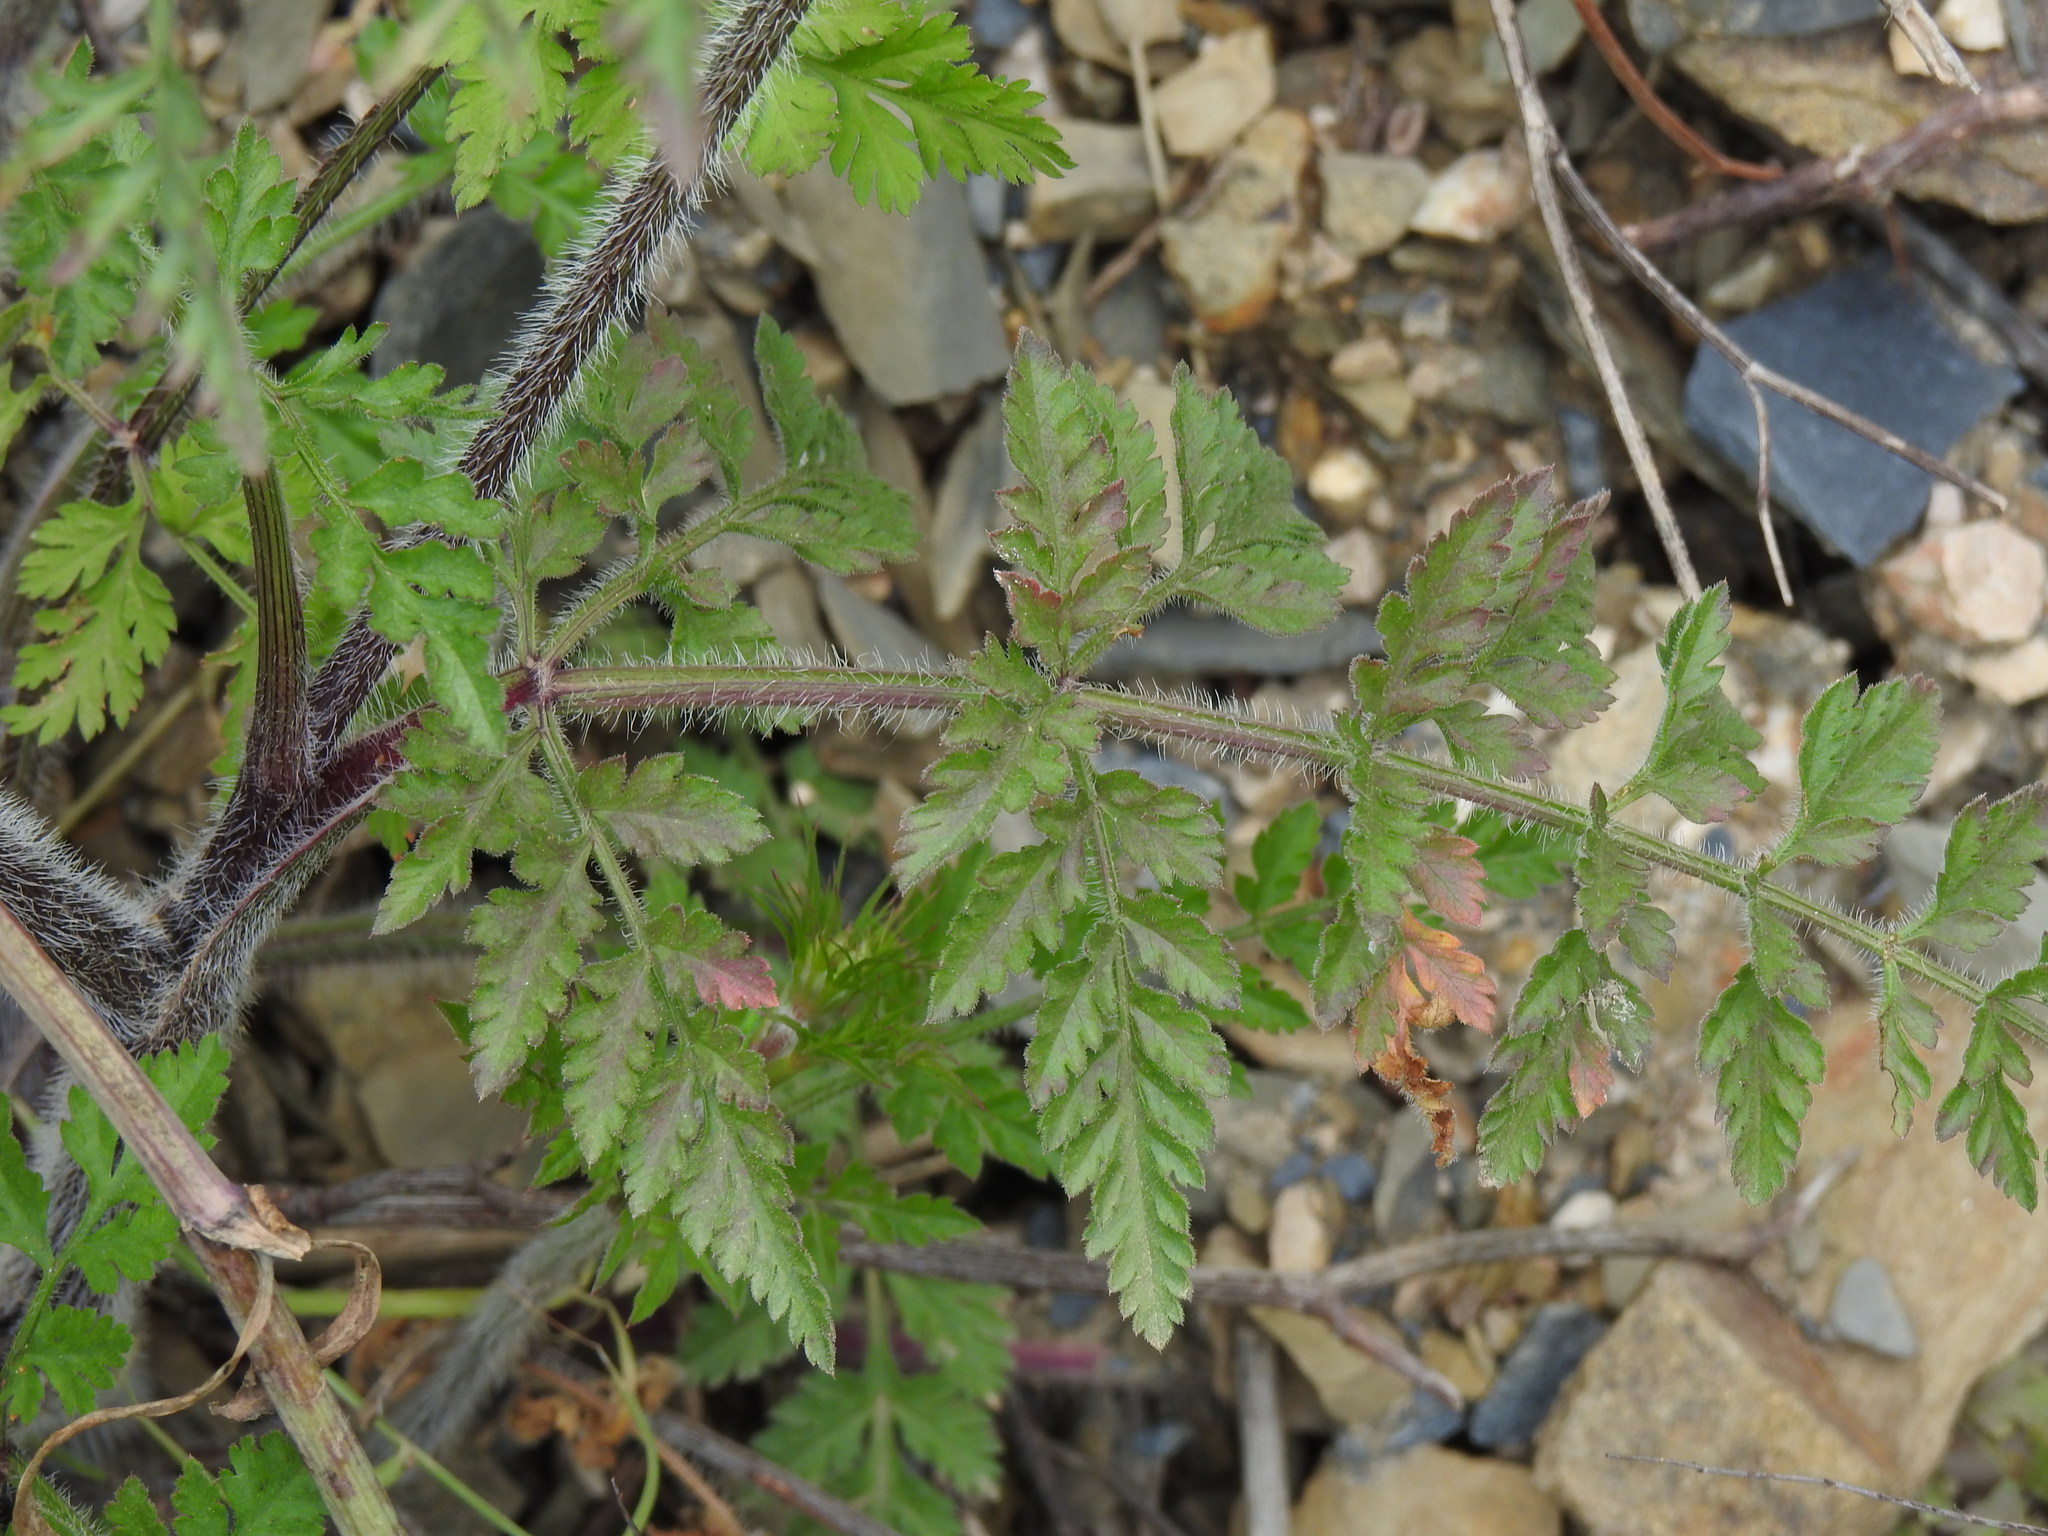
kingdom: Plantae
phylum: Tracheophyta
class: Magnoliopsida
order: Apiales
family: Apiaceae
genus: Daucus
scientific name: Daucus carota
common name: Wild carrot
